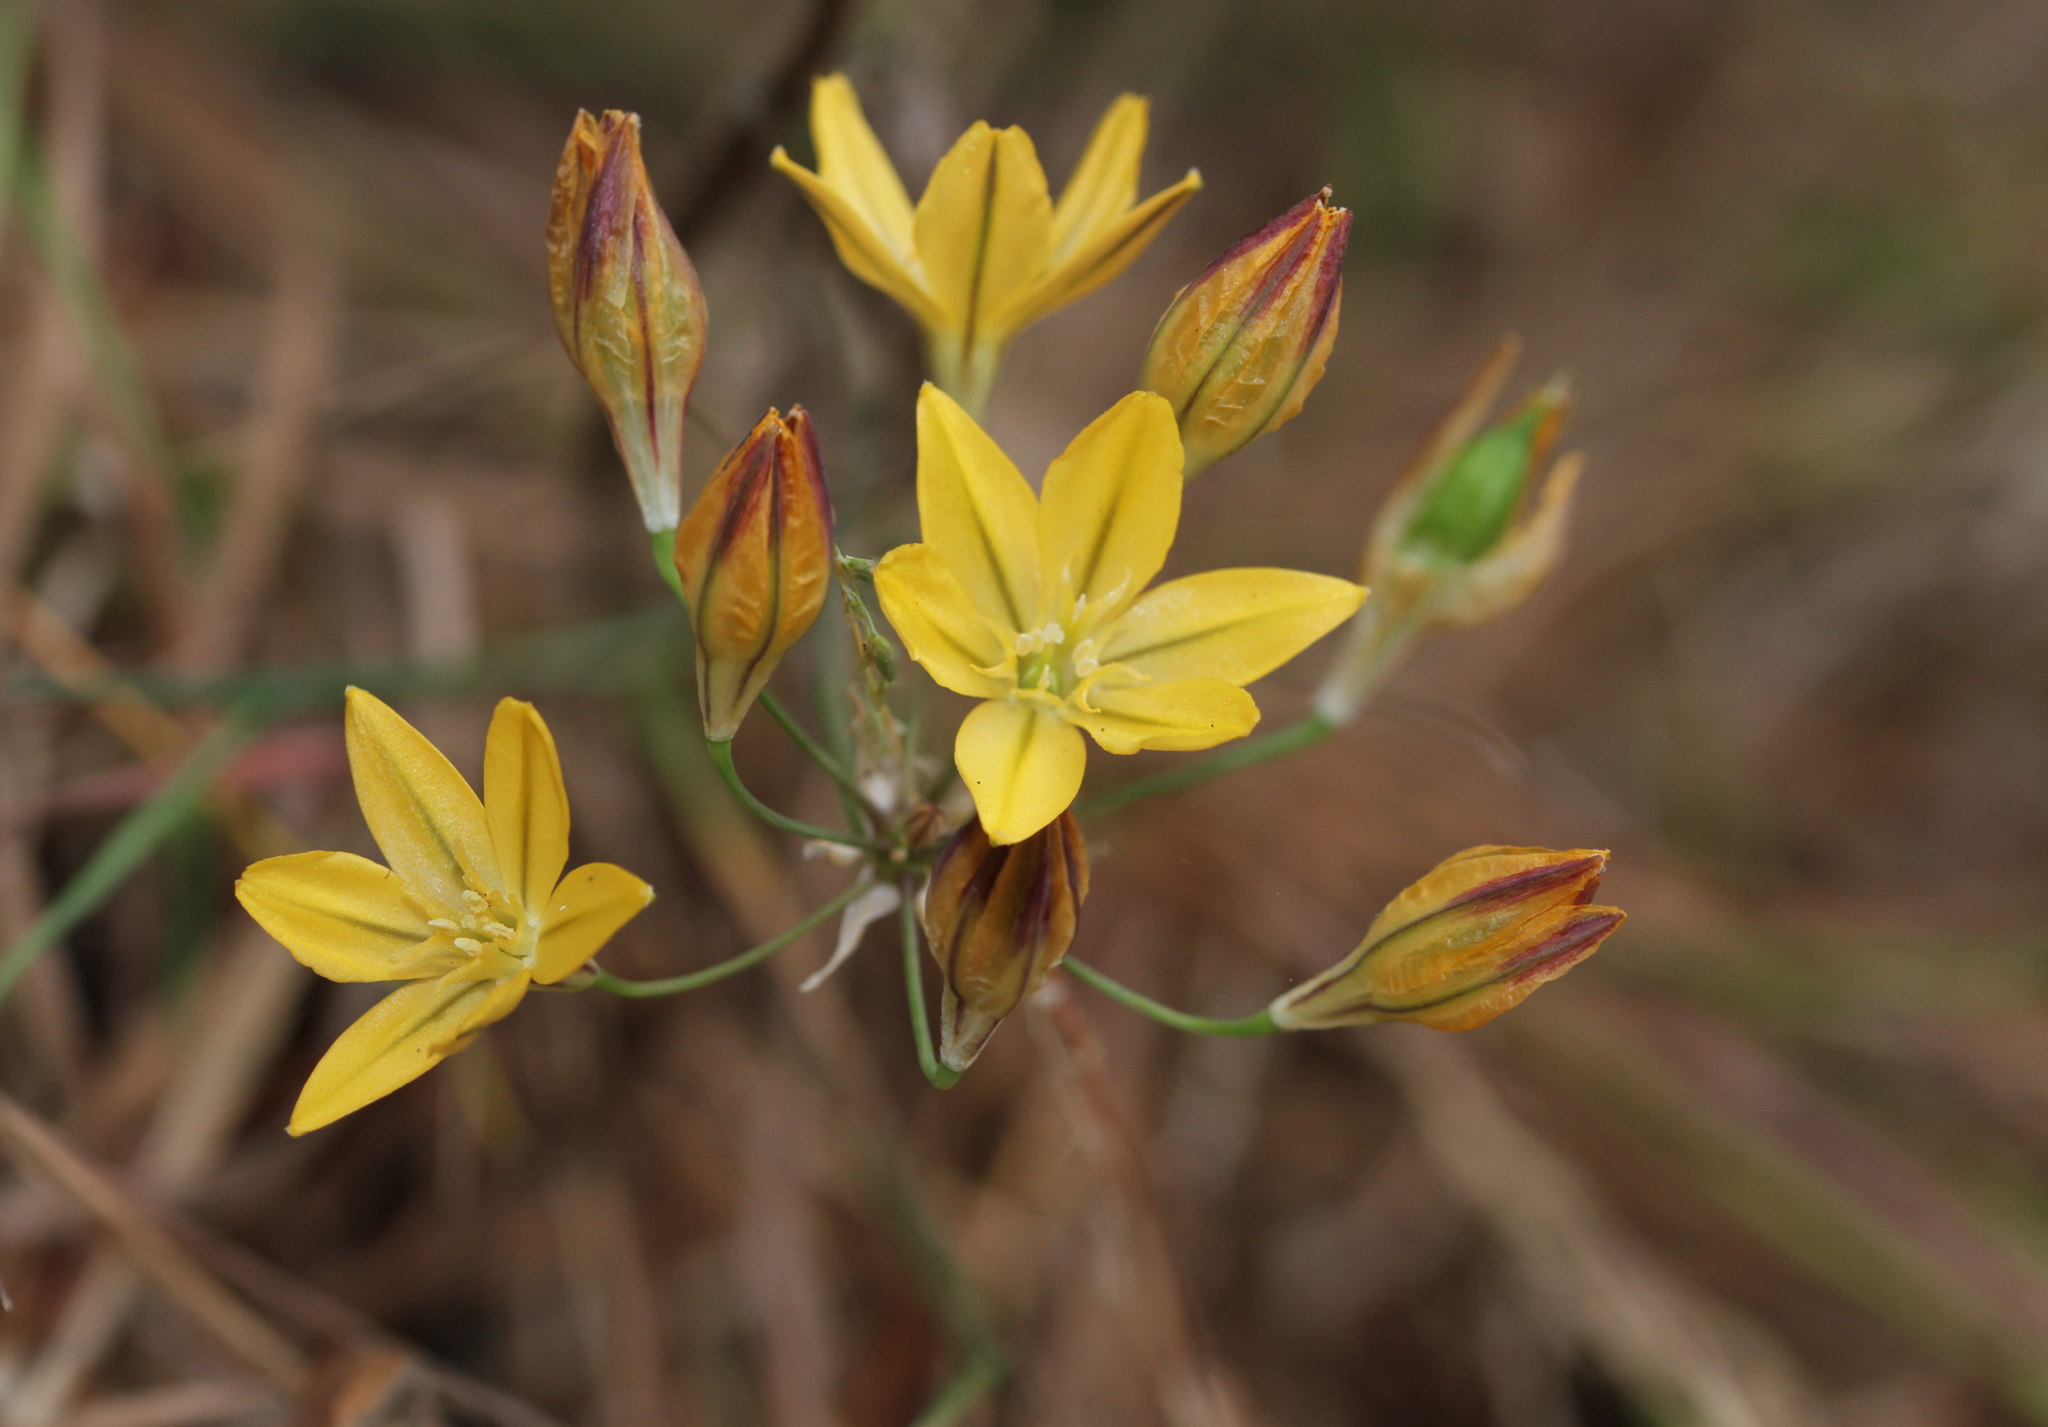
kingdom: Plantae
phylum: Tracheophyta
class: Liliopsida
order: Asparagales
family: Asparagaceae
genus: Triteleia
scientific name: Triteleia ixioides
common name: Yellow-brodiaea
